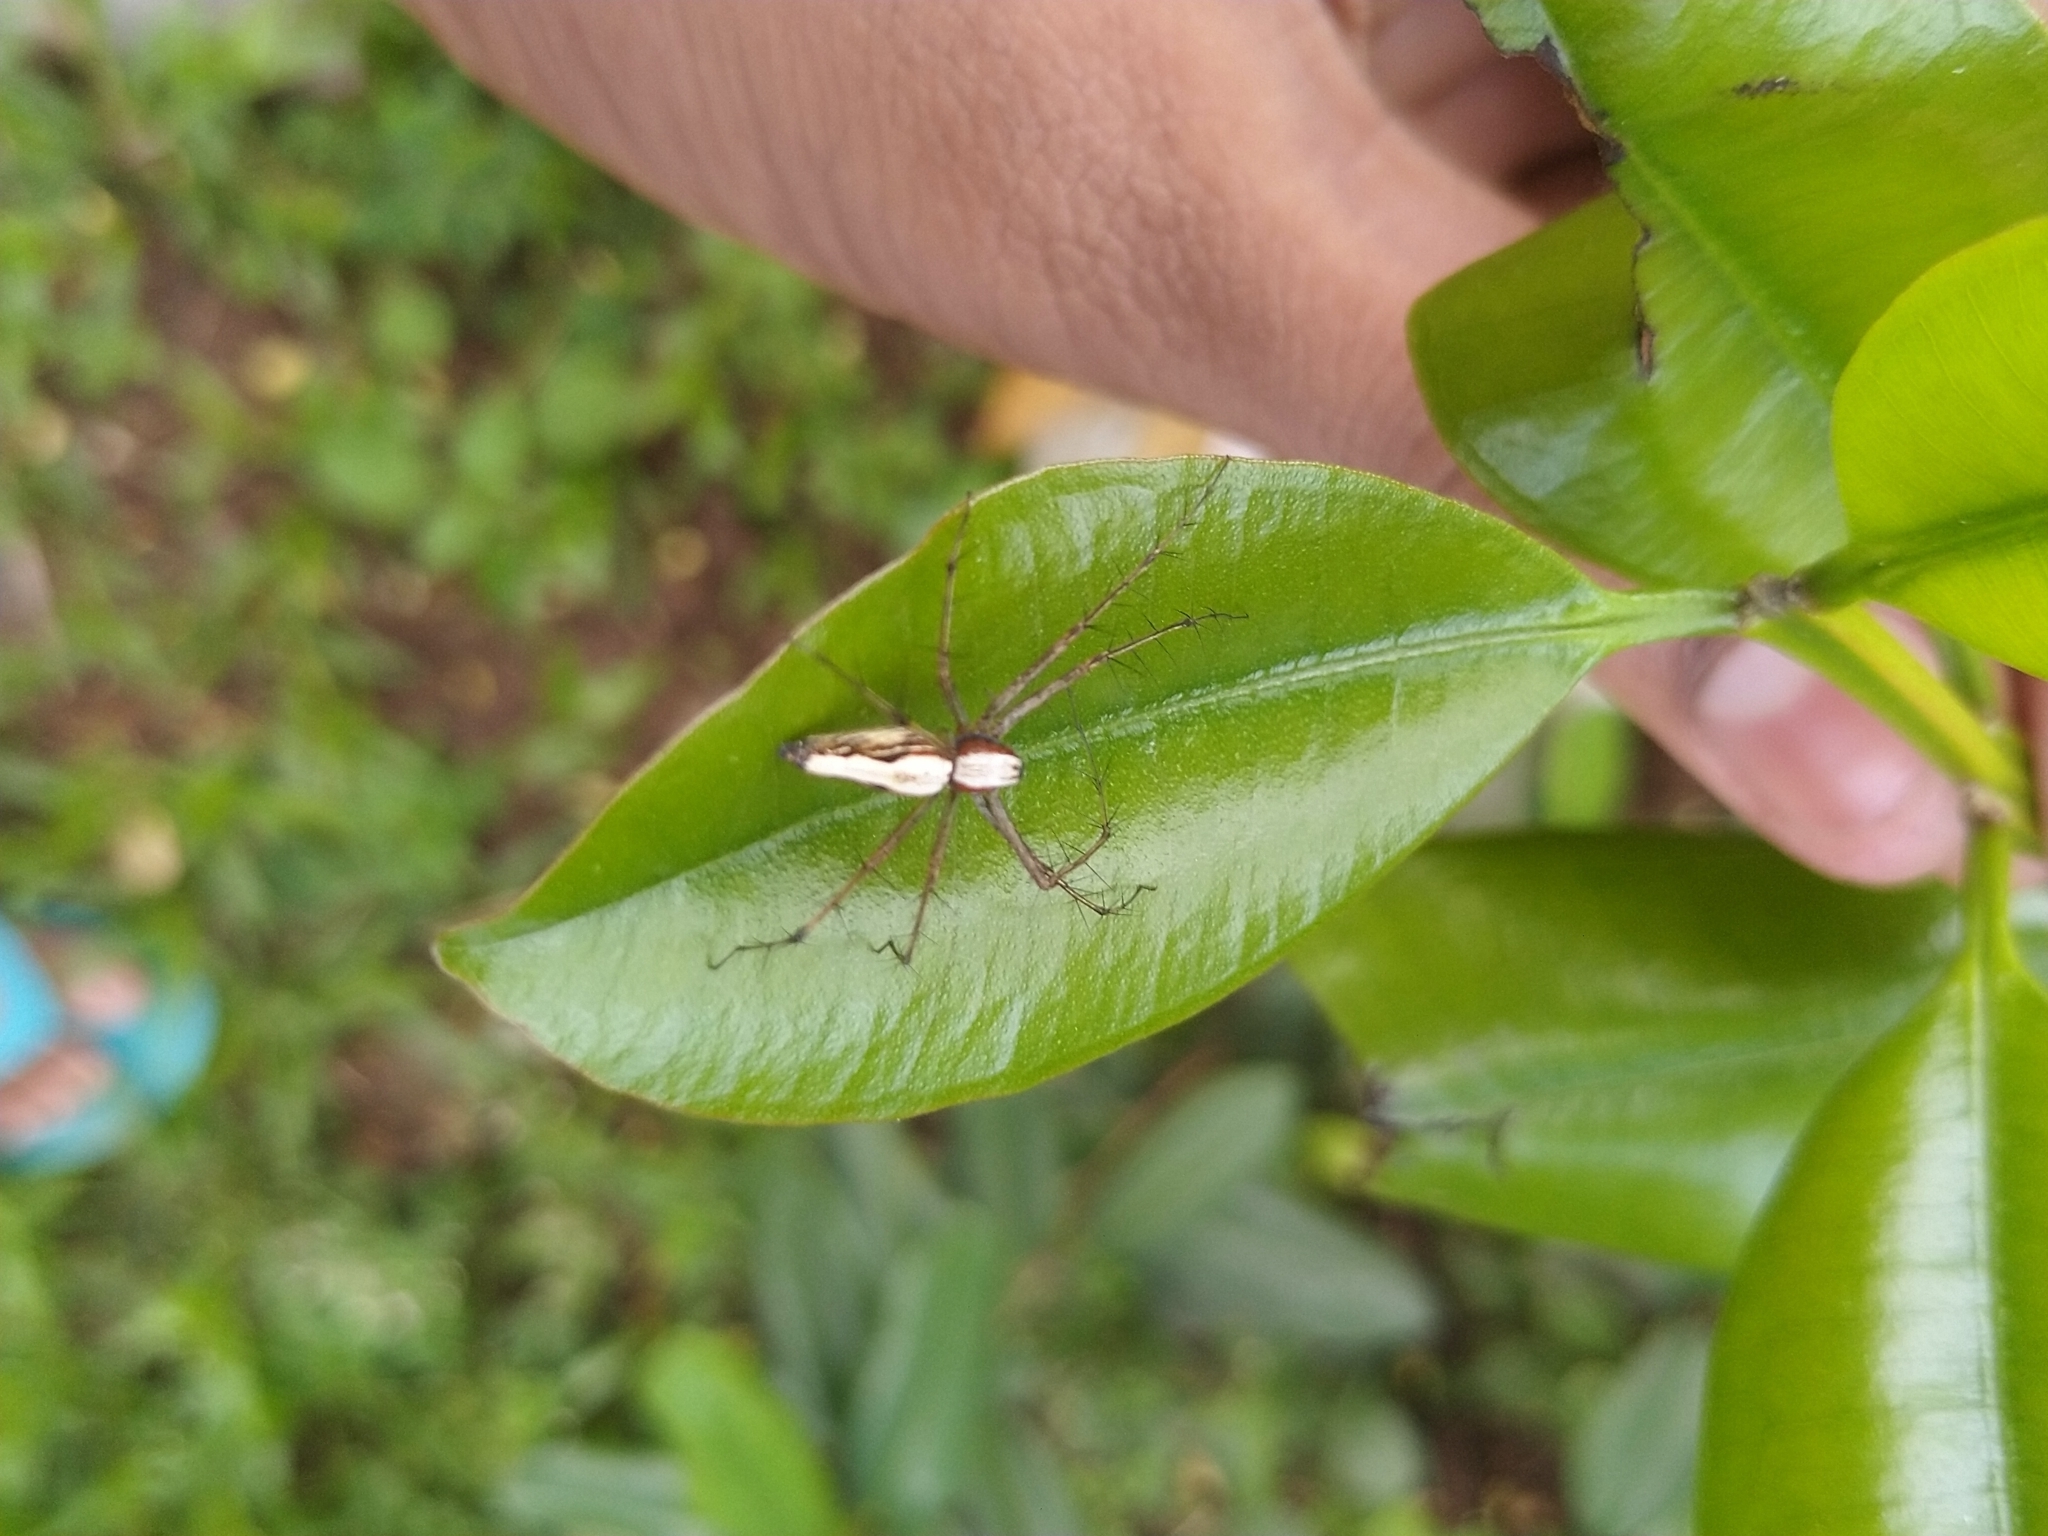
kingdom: Animalia
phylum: Arthropoda
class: Arachnida
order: Araneae
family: Oxyopidae
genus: Oxyopes
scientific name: Oxyopes shweta
